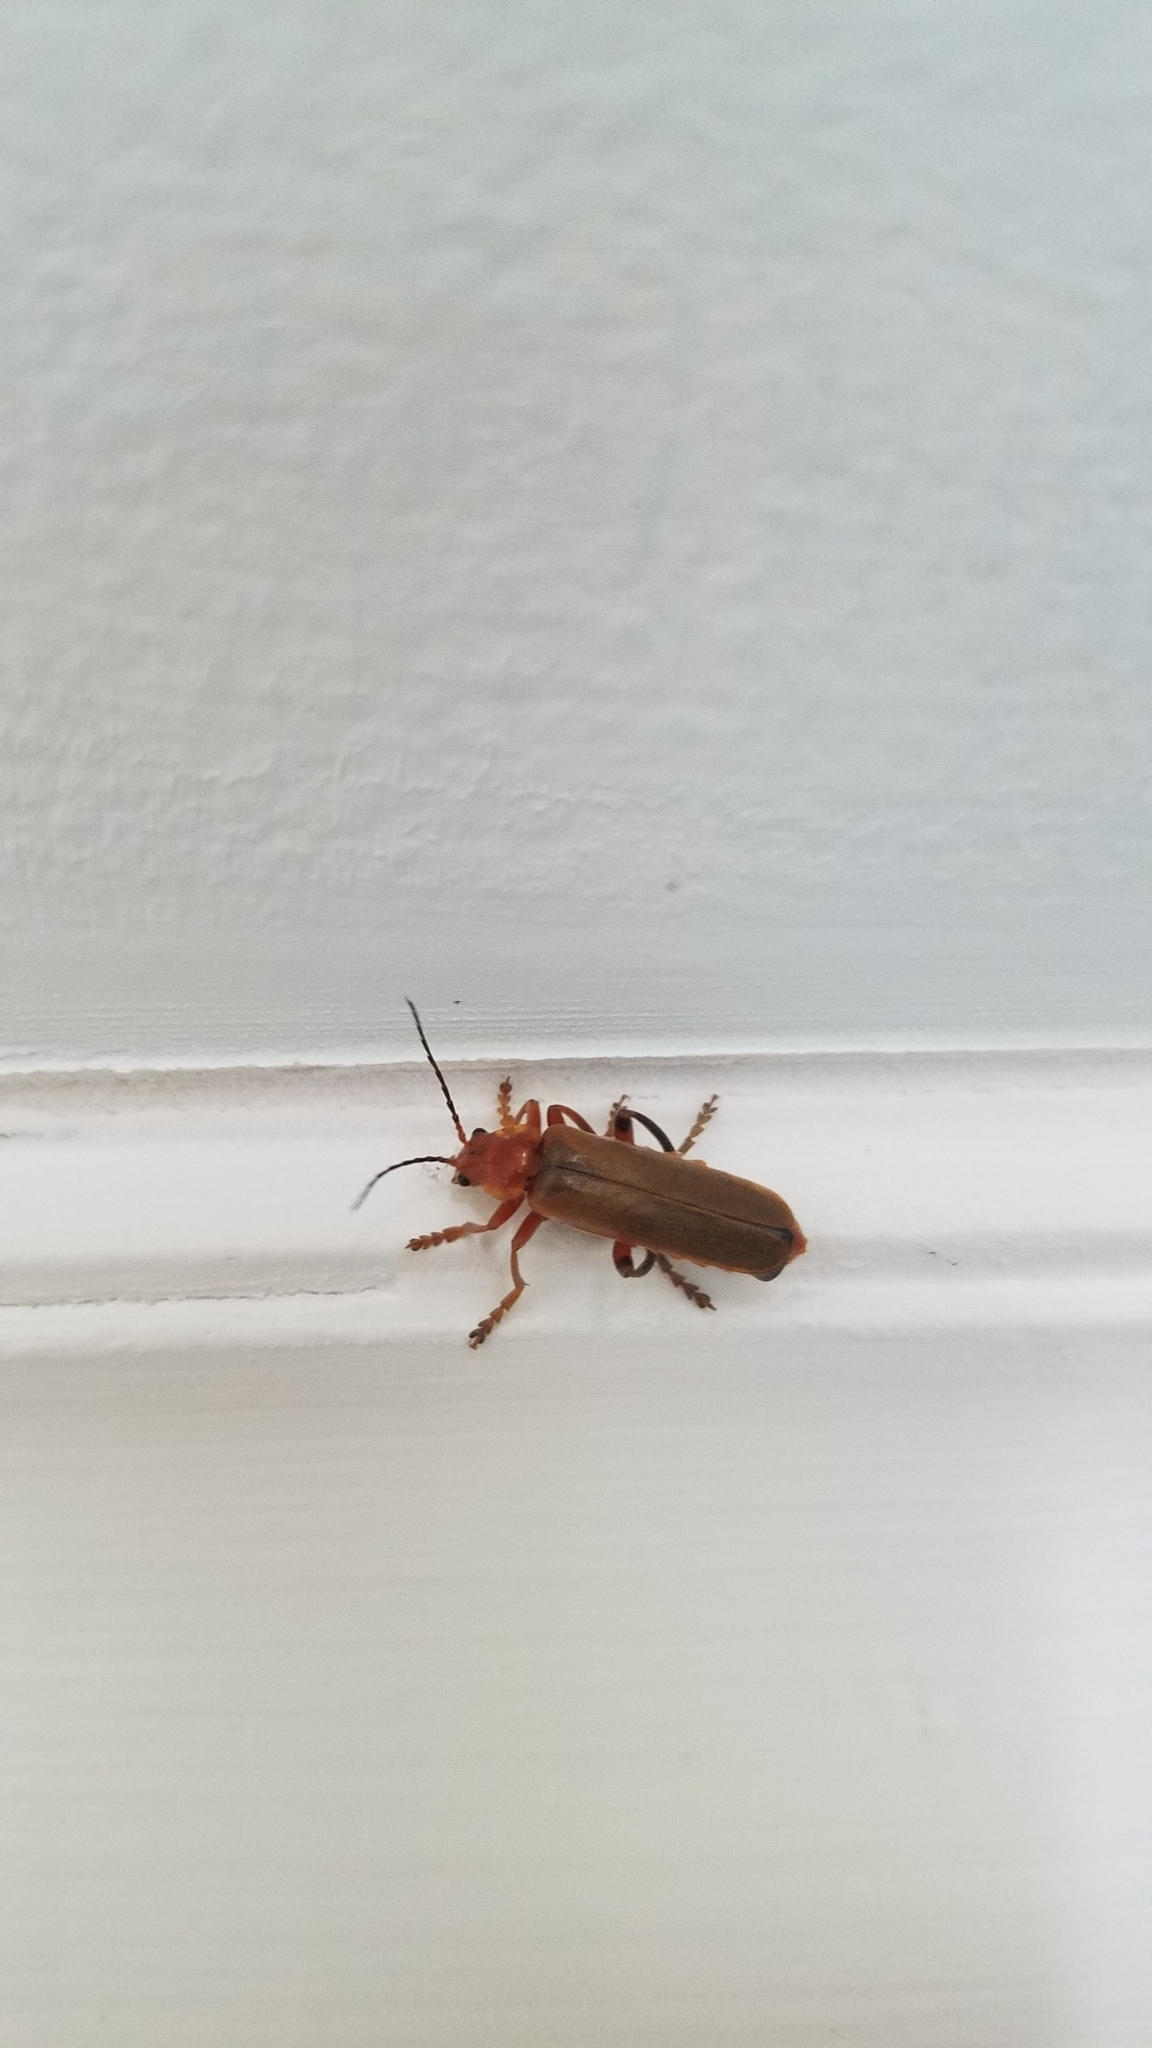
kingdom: Animalia
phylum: Arthropoda
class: Insecta
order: Coleoptera
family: Cantharidae
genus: Cantharis
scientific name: Cantharis livida
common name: Livid soldier beetle
